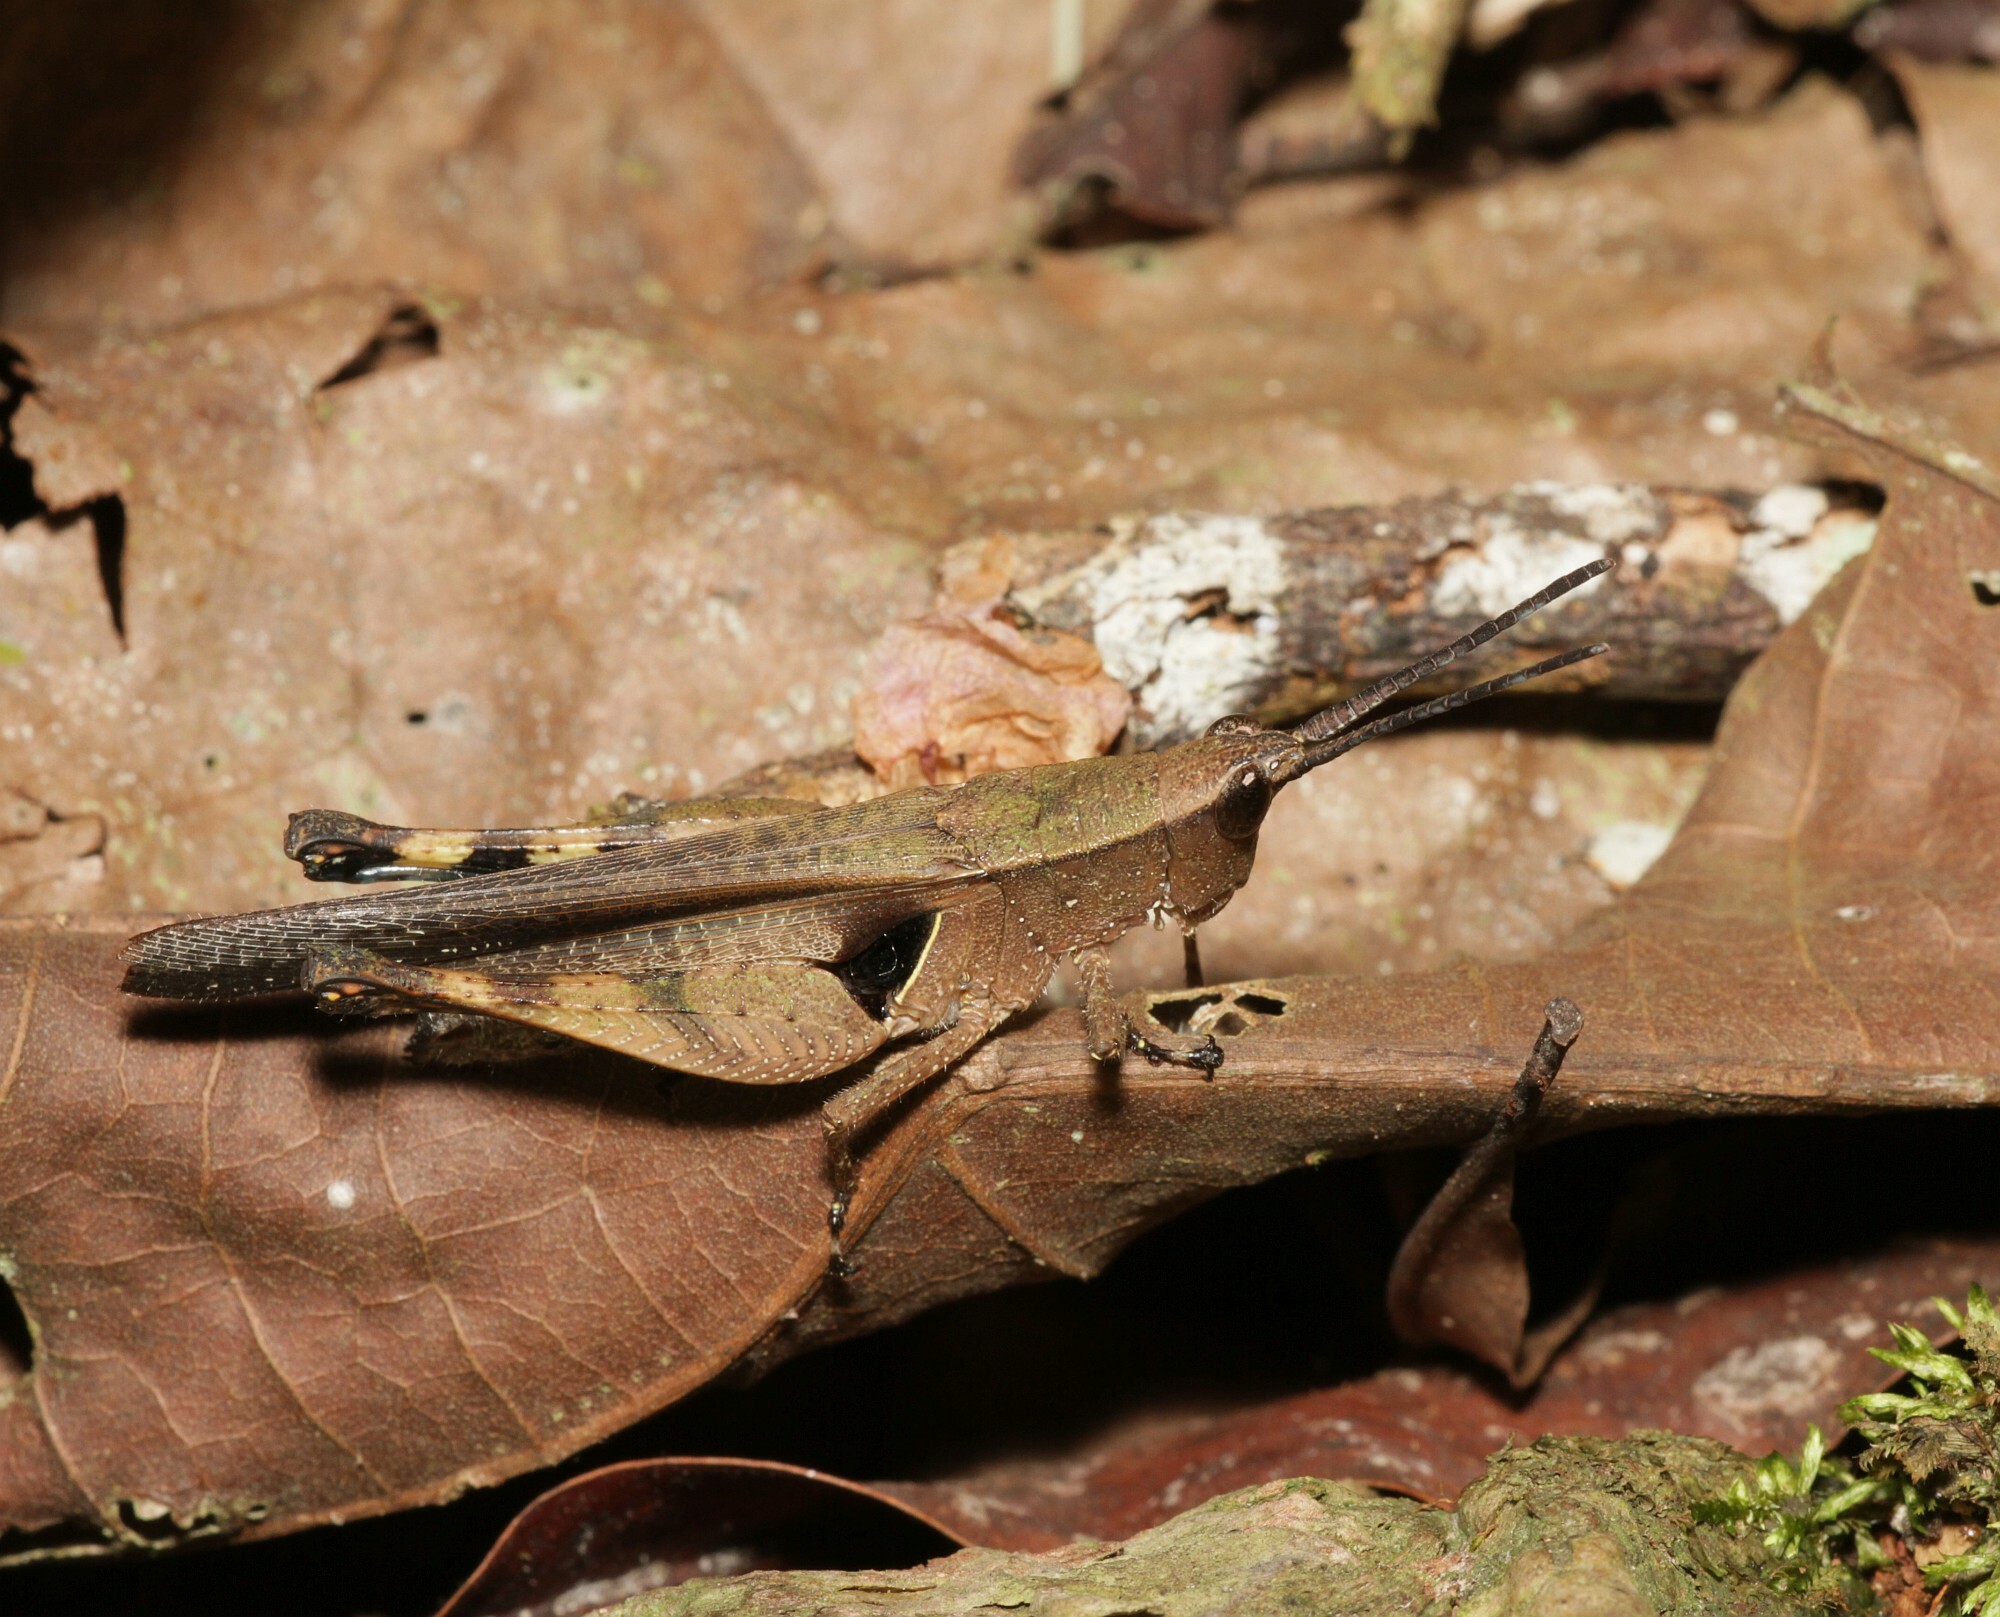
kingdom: Animalia
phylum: Arthropoda
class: Insecta
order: Orthoptera
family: Acrididae
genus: Xiphiola
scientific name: Xiphiola cyanoptera
